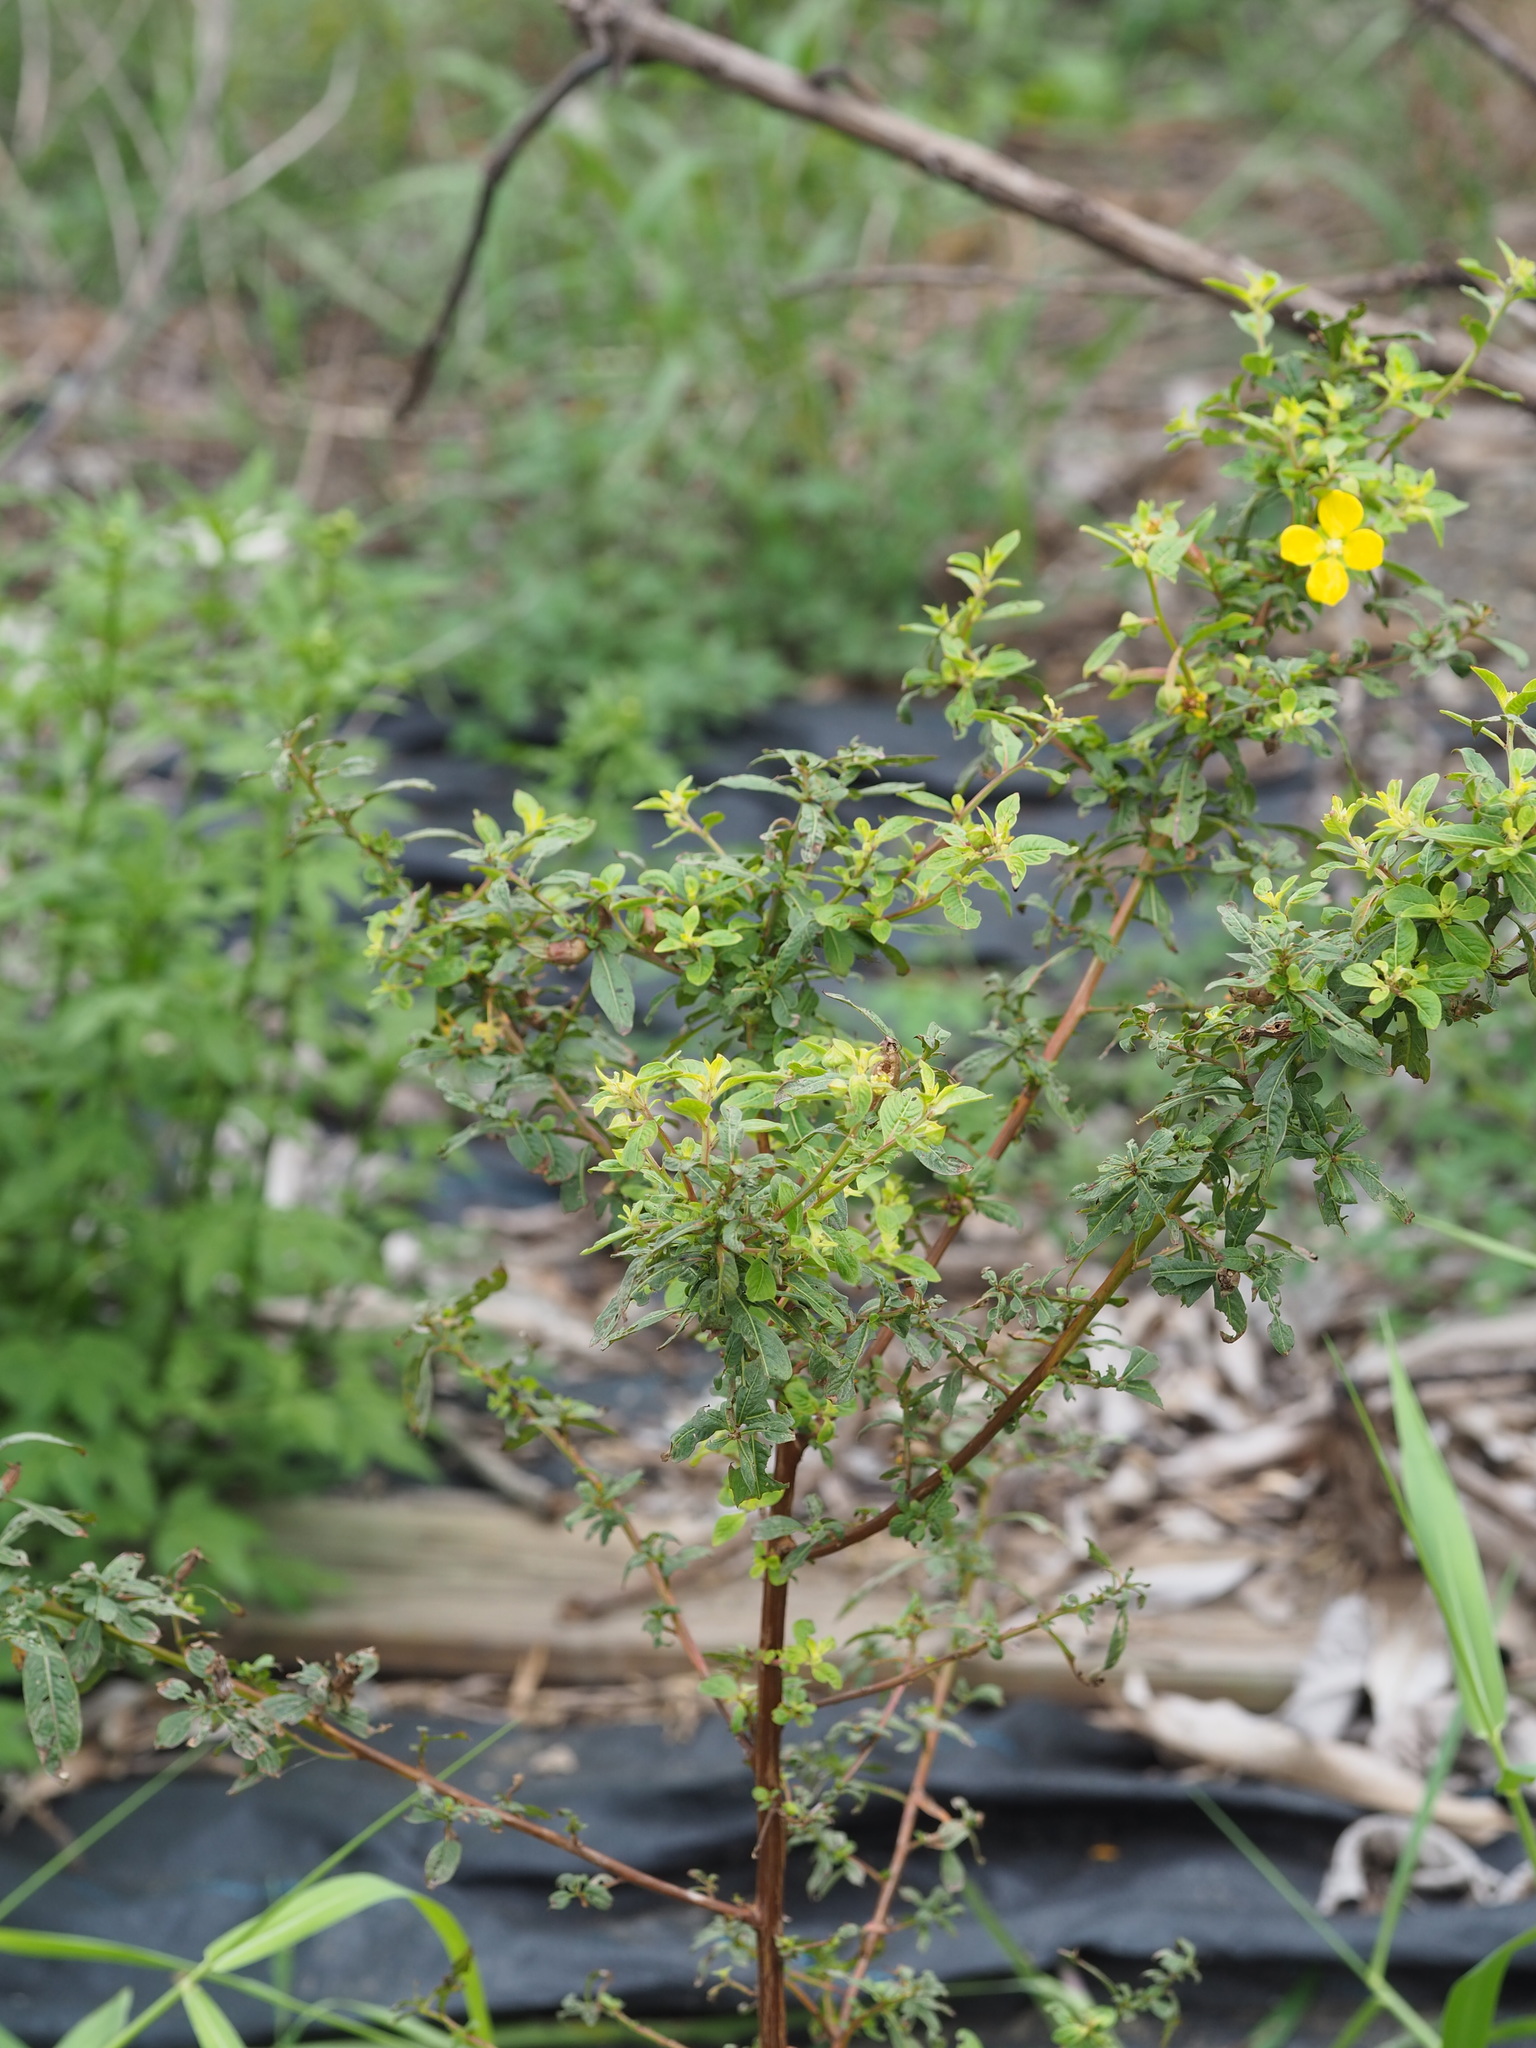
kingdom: Plantae
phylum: Tracheophyta
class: Magnoliopsida
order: Myrtales
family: Onagraceae
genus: Ludwigia
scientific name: Ludwigia octovalvis
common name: Water-primrose
